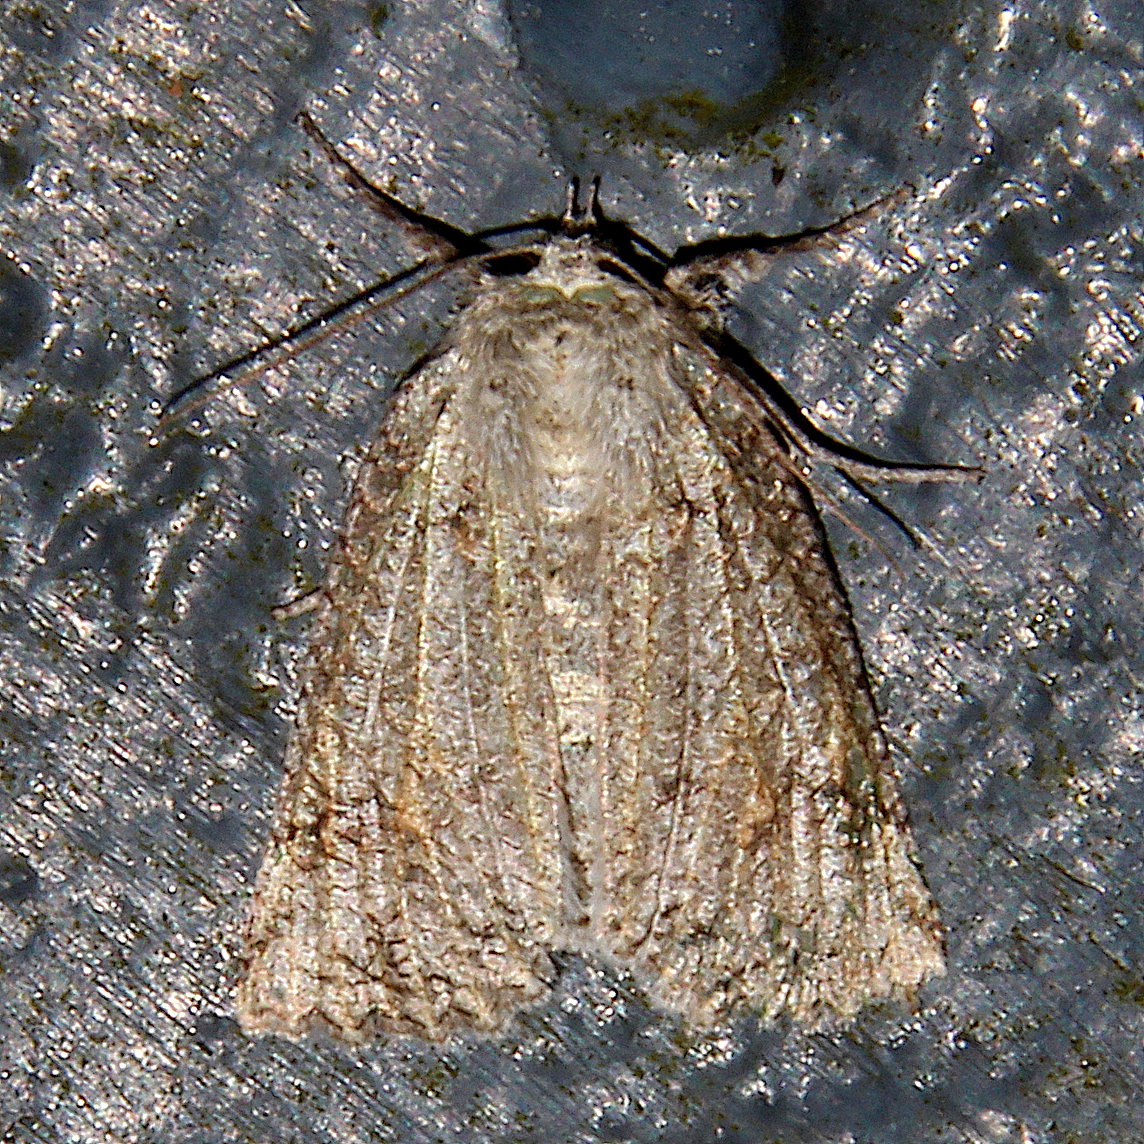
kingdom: Animalia
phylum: Arthropoda
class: Insecta
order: Lepidoptera
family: Geometridae
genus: Declana
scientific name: Declana floccosa
